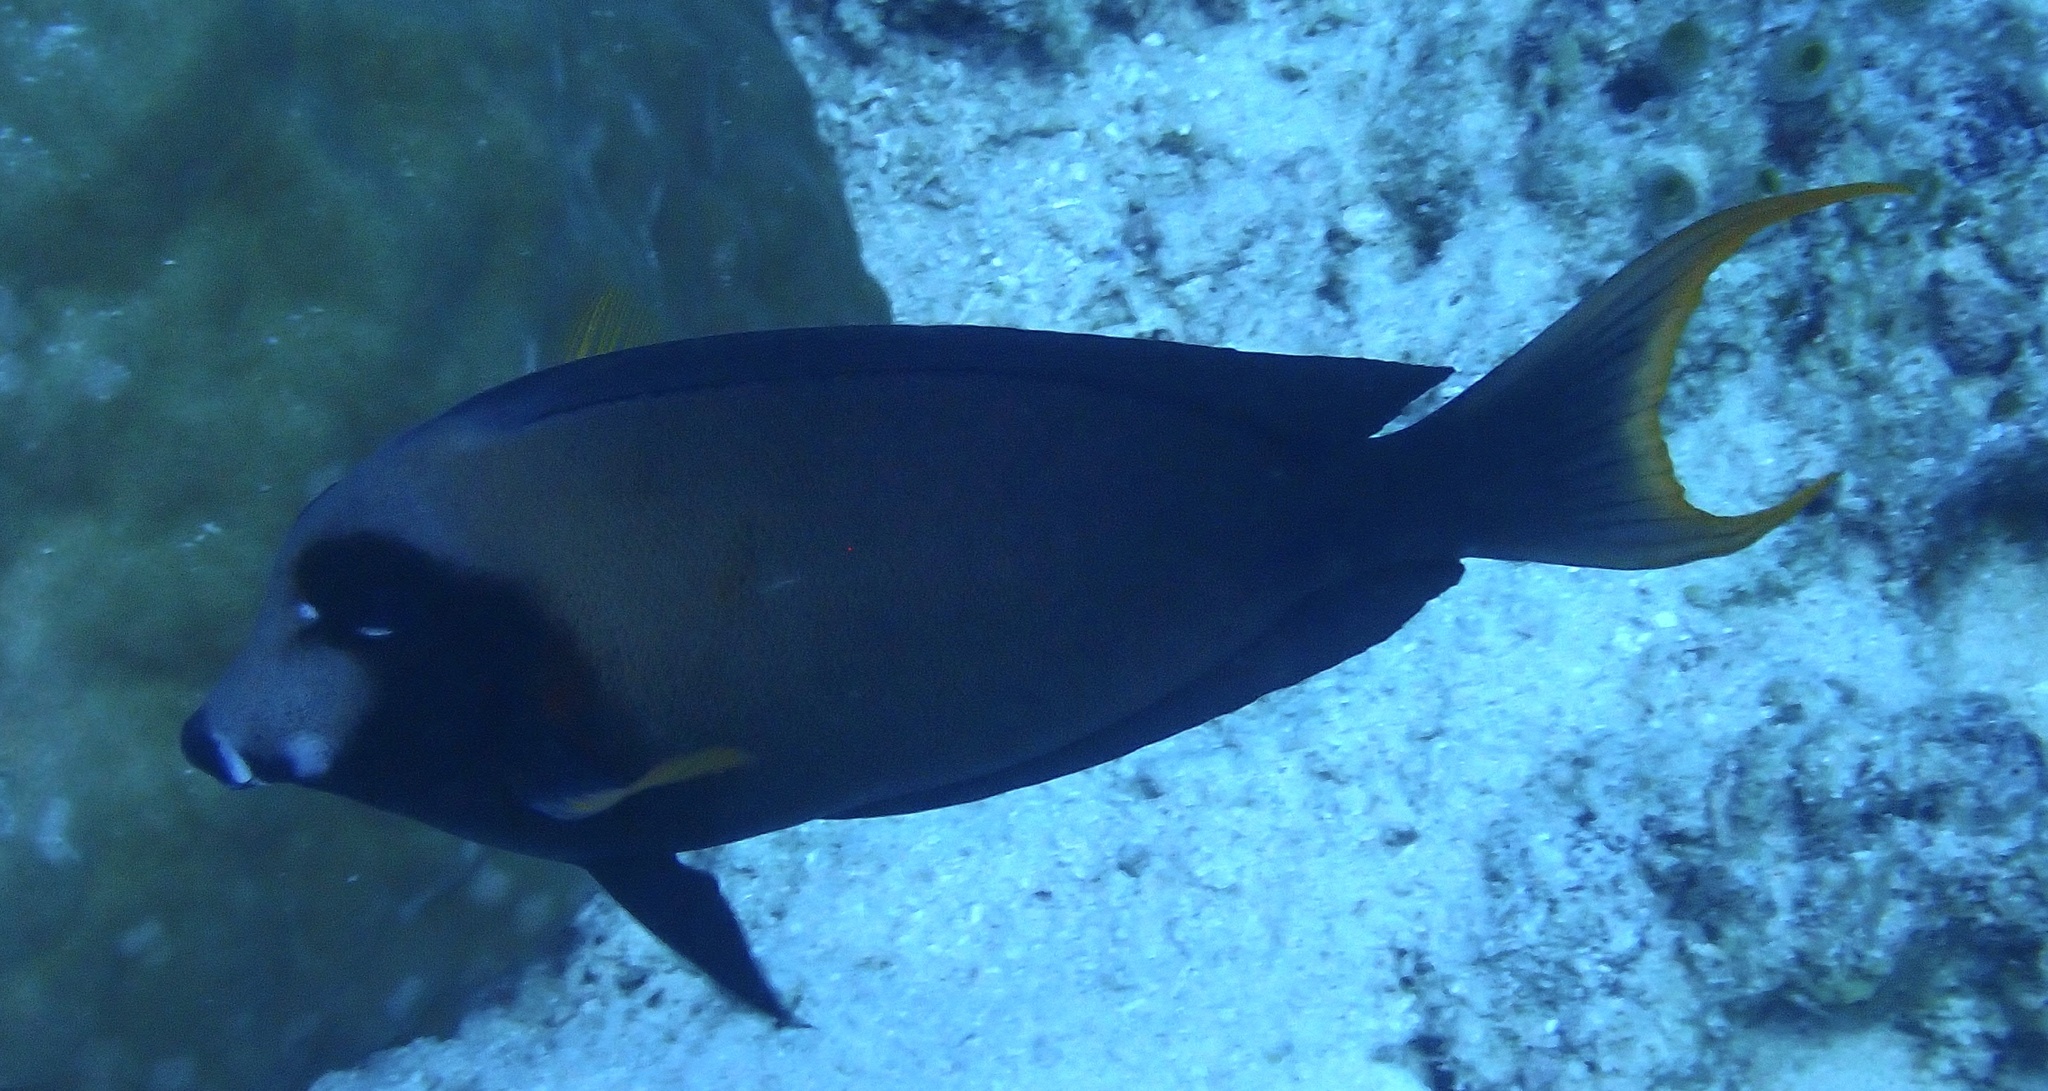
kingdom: Animalia
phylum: Chordata
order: Perciformes
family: Acanthuridae
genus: Acanthurus
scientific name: Acanthurus pyroferus
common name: Chocolate surgeonfish
